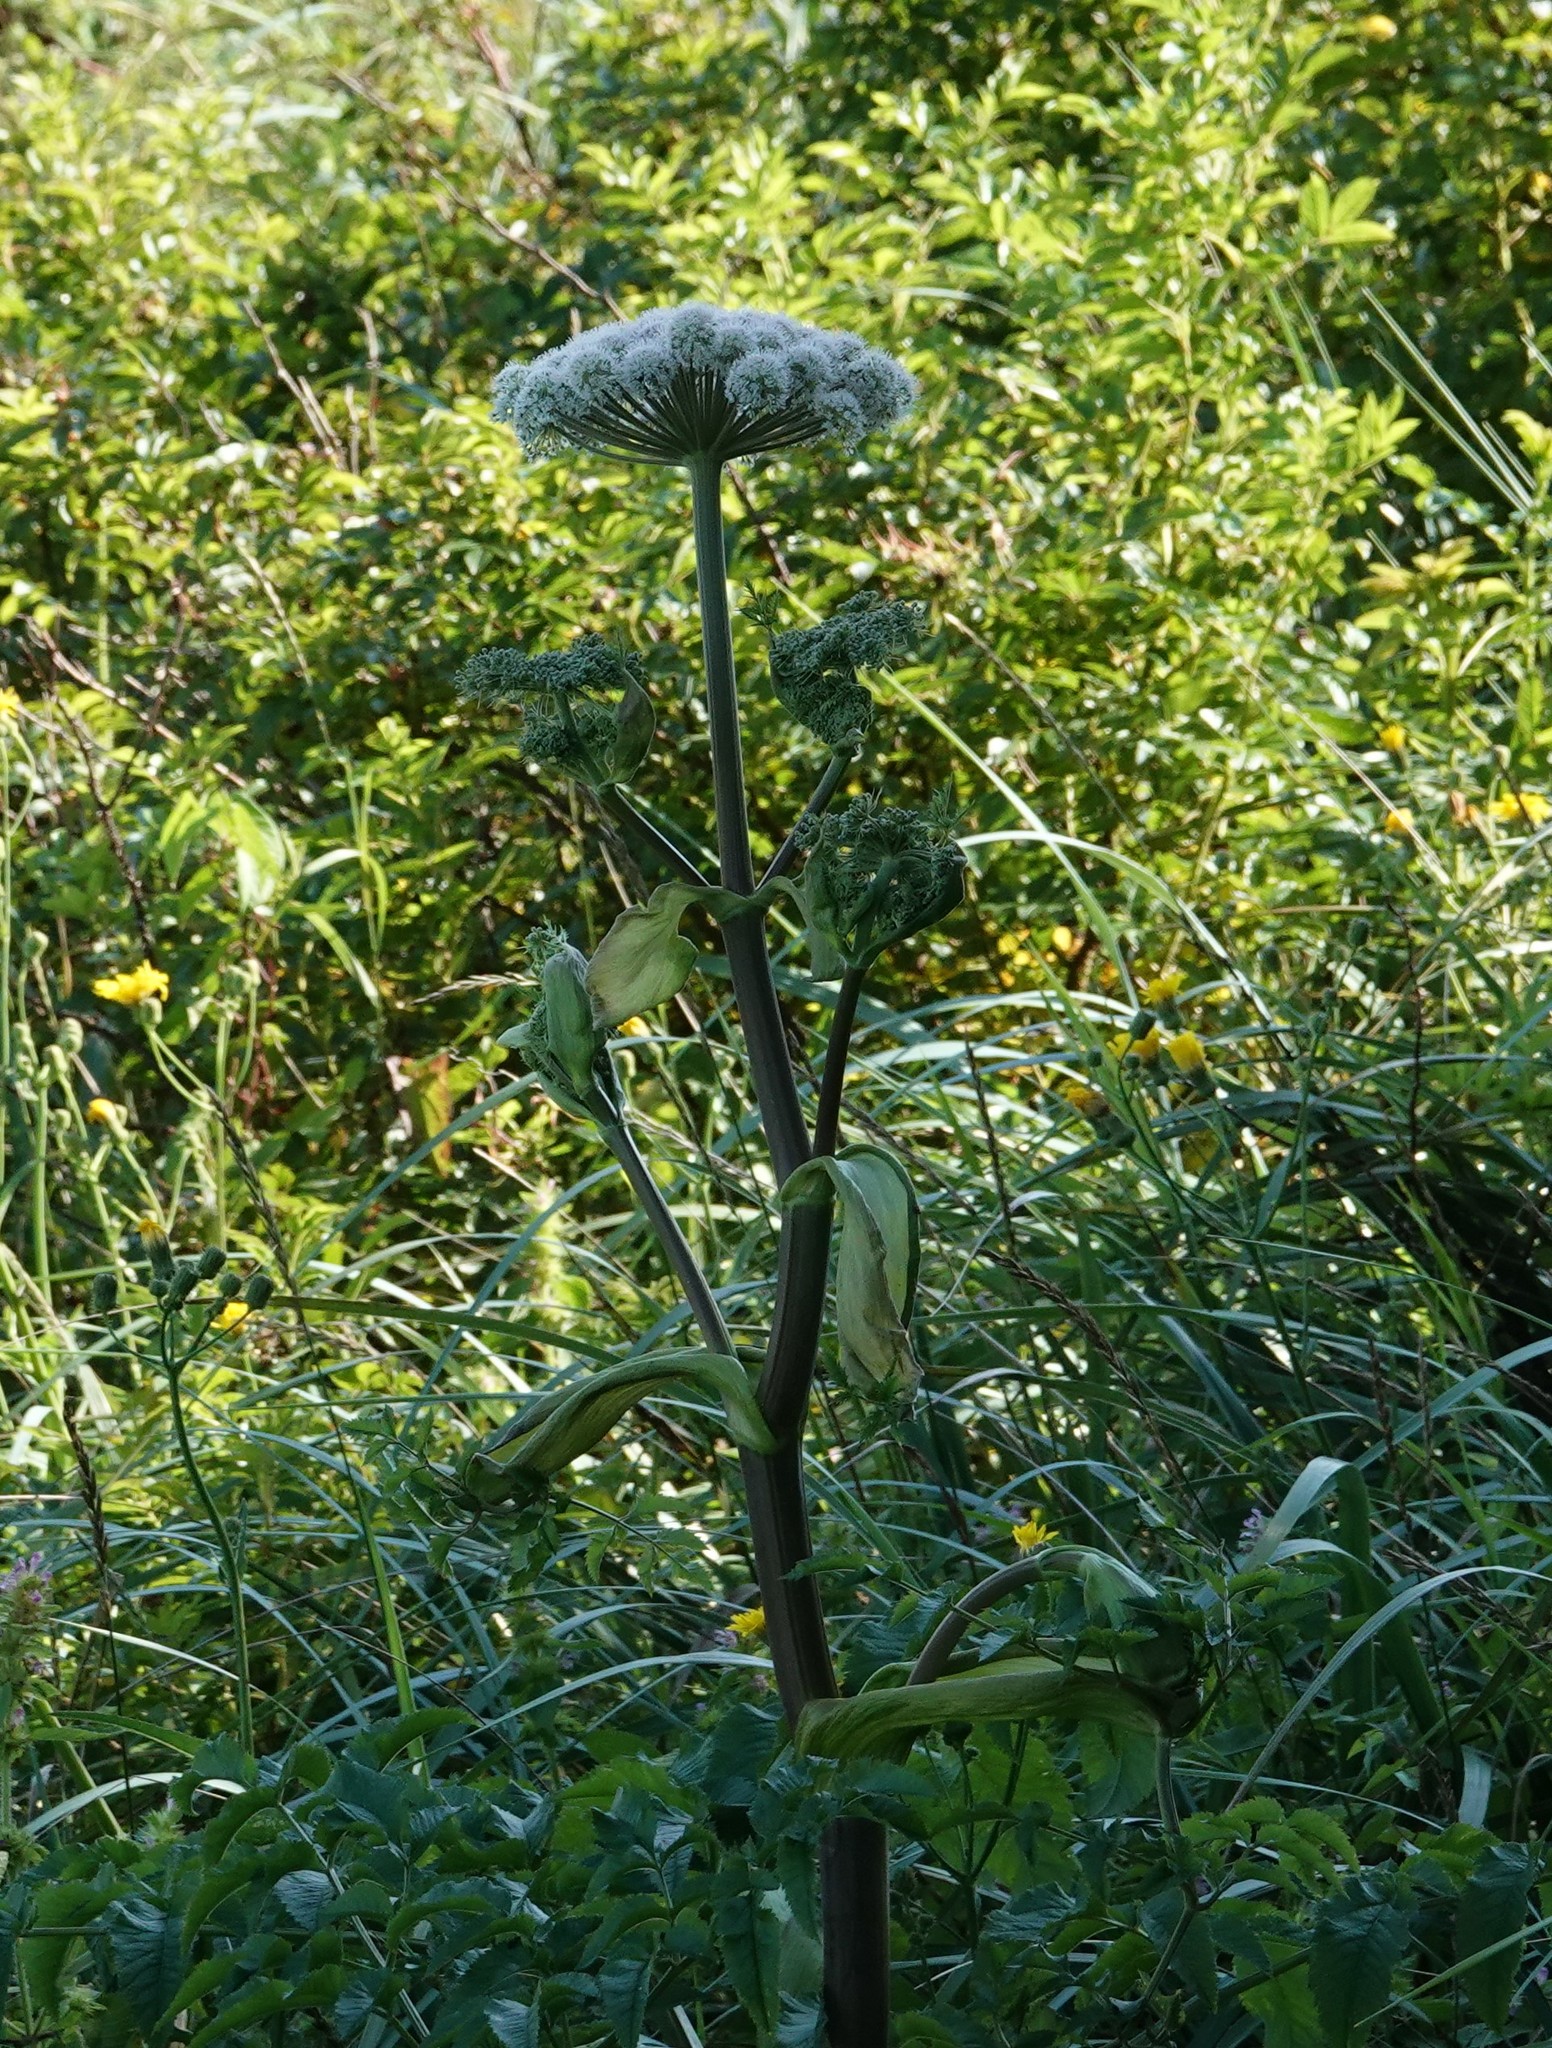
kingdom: Plantae
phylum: Tracheophyta
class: Magnoliopsida
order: Apiales
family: Apiaceae
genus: Angelica
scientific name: Angelica sylvestris
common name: Wild angelica
